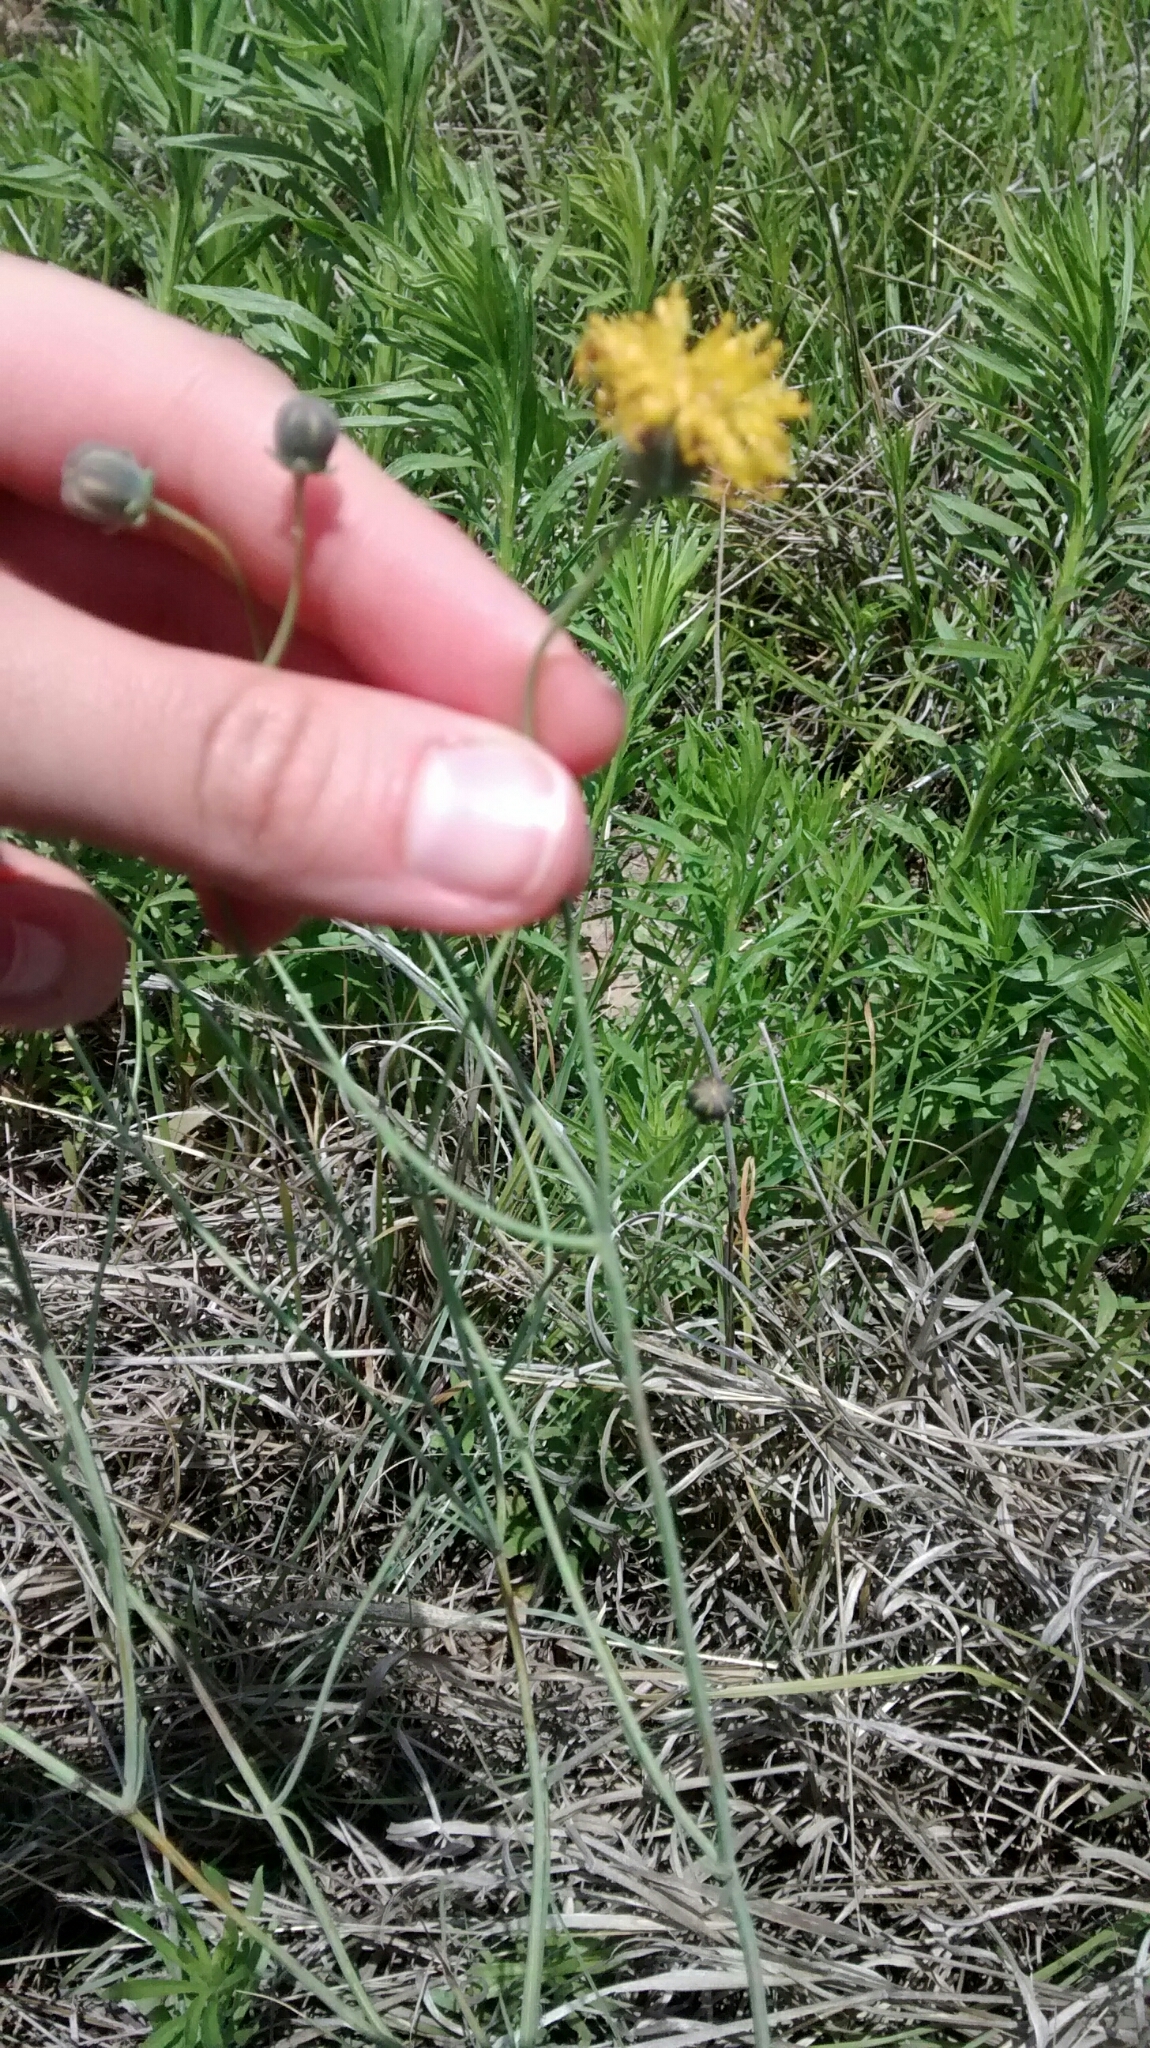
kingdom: Plantae
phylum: Tracheophyta
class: Magnoliopsida
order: Asterales
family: Asteraceae
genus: Thelesperma
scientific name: Thelesperma megapotamicum
